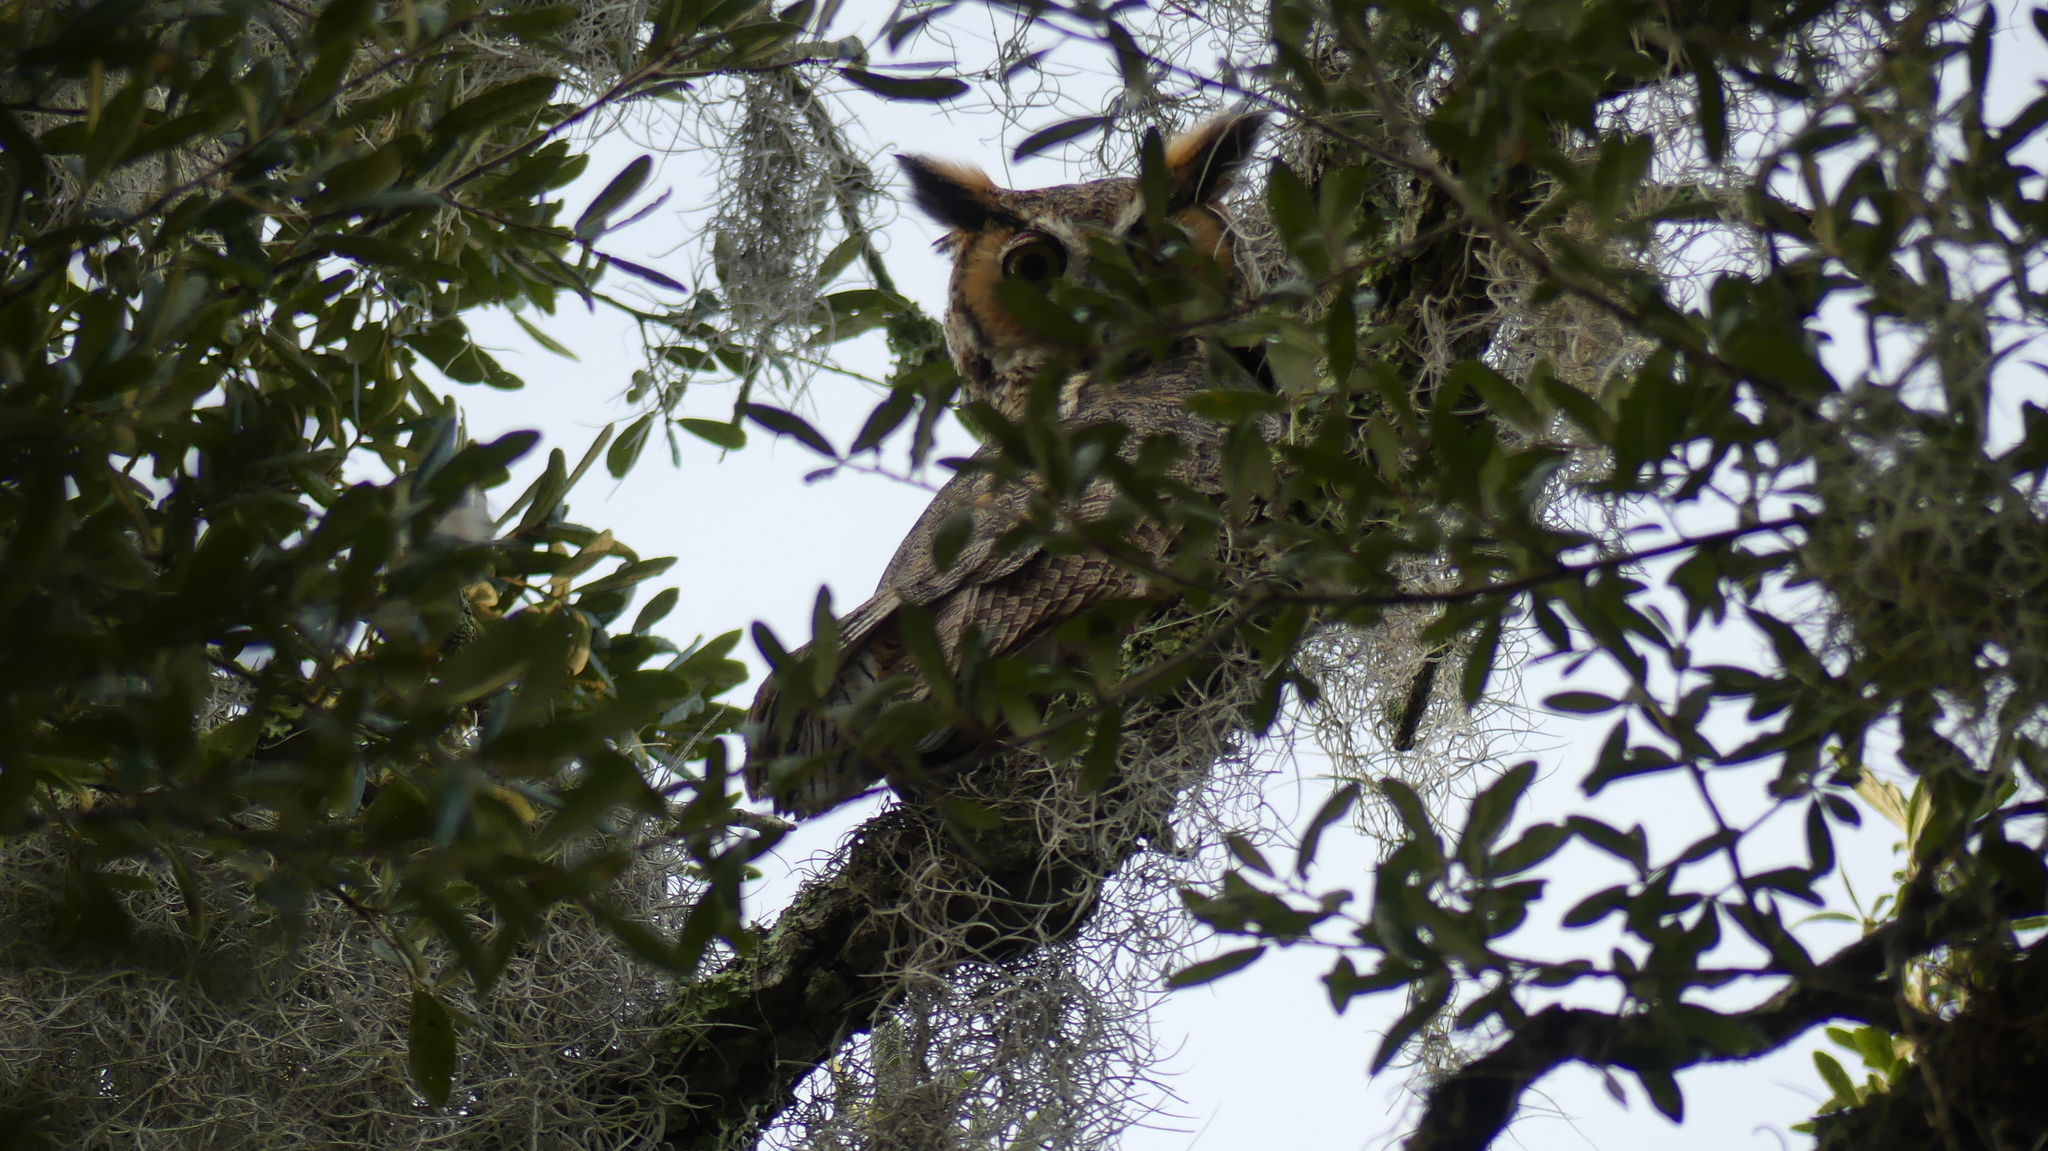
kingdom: Animalia
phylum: Chordata
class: Aves
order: Strigiformes
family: Strigidae
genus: Bubo
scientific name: Bubo virginianus
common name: Great horned owl
